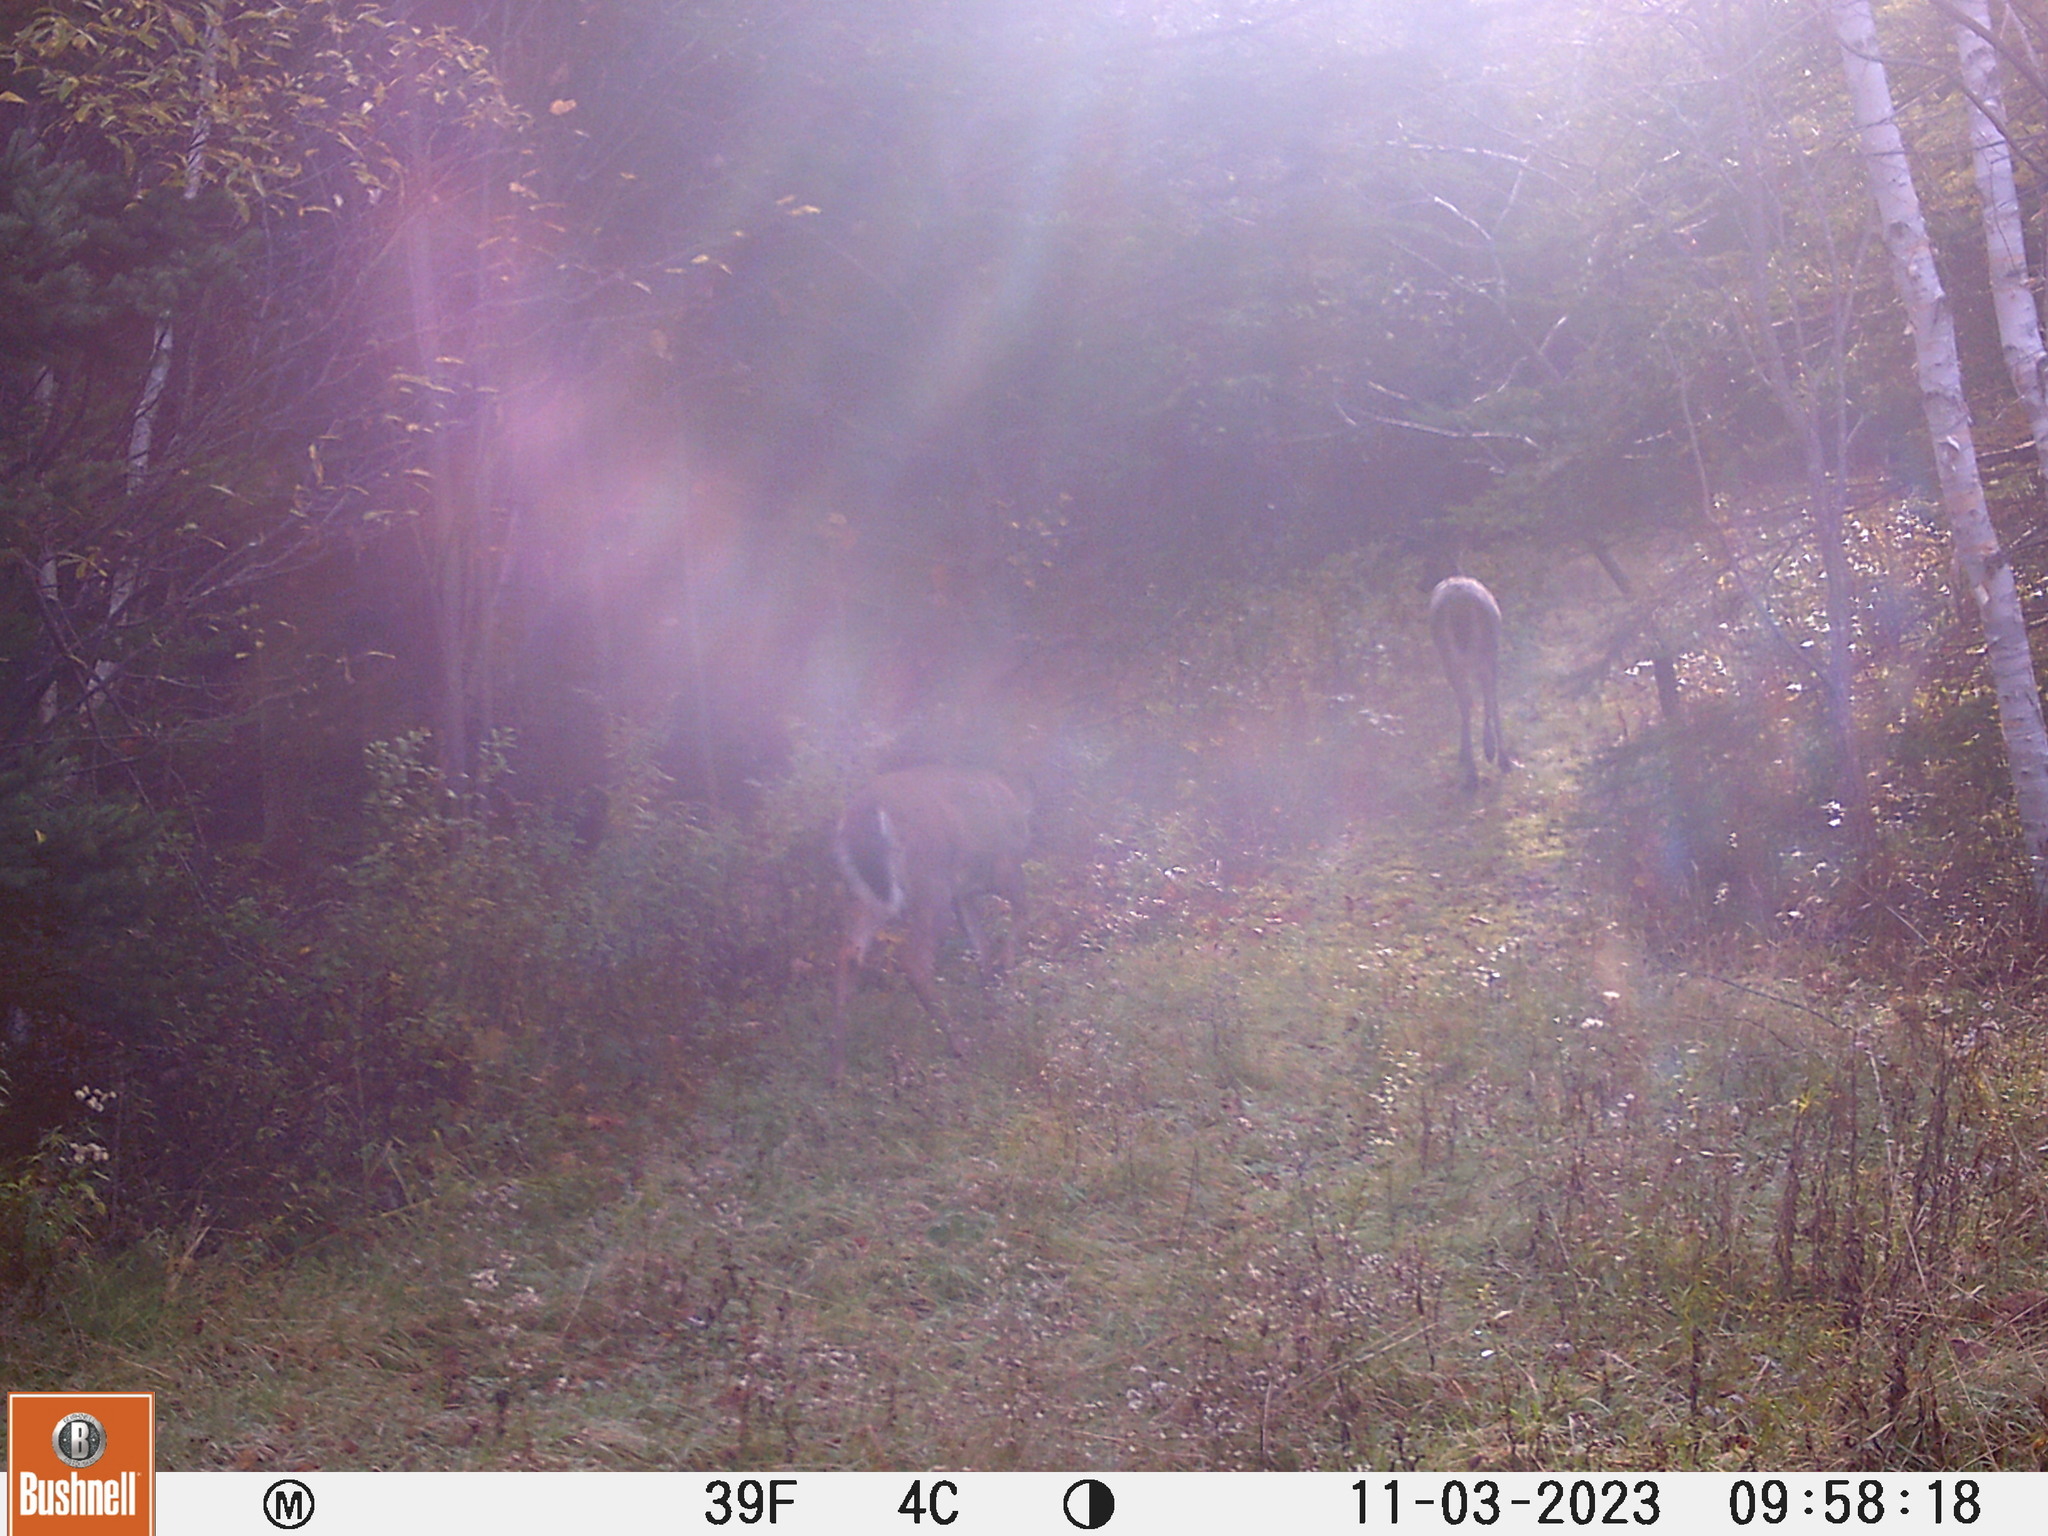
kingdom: Animalia
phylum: Chordata
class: Mammalia
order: Artiodactyla
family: Cervidae
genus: Odocoileus
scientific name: Odocoileus virginianus
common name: White-tailed deer
